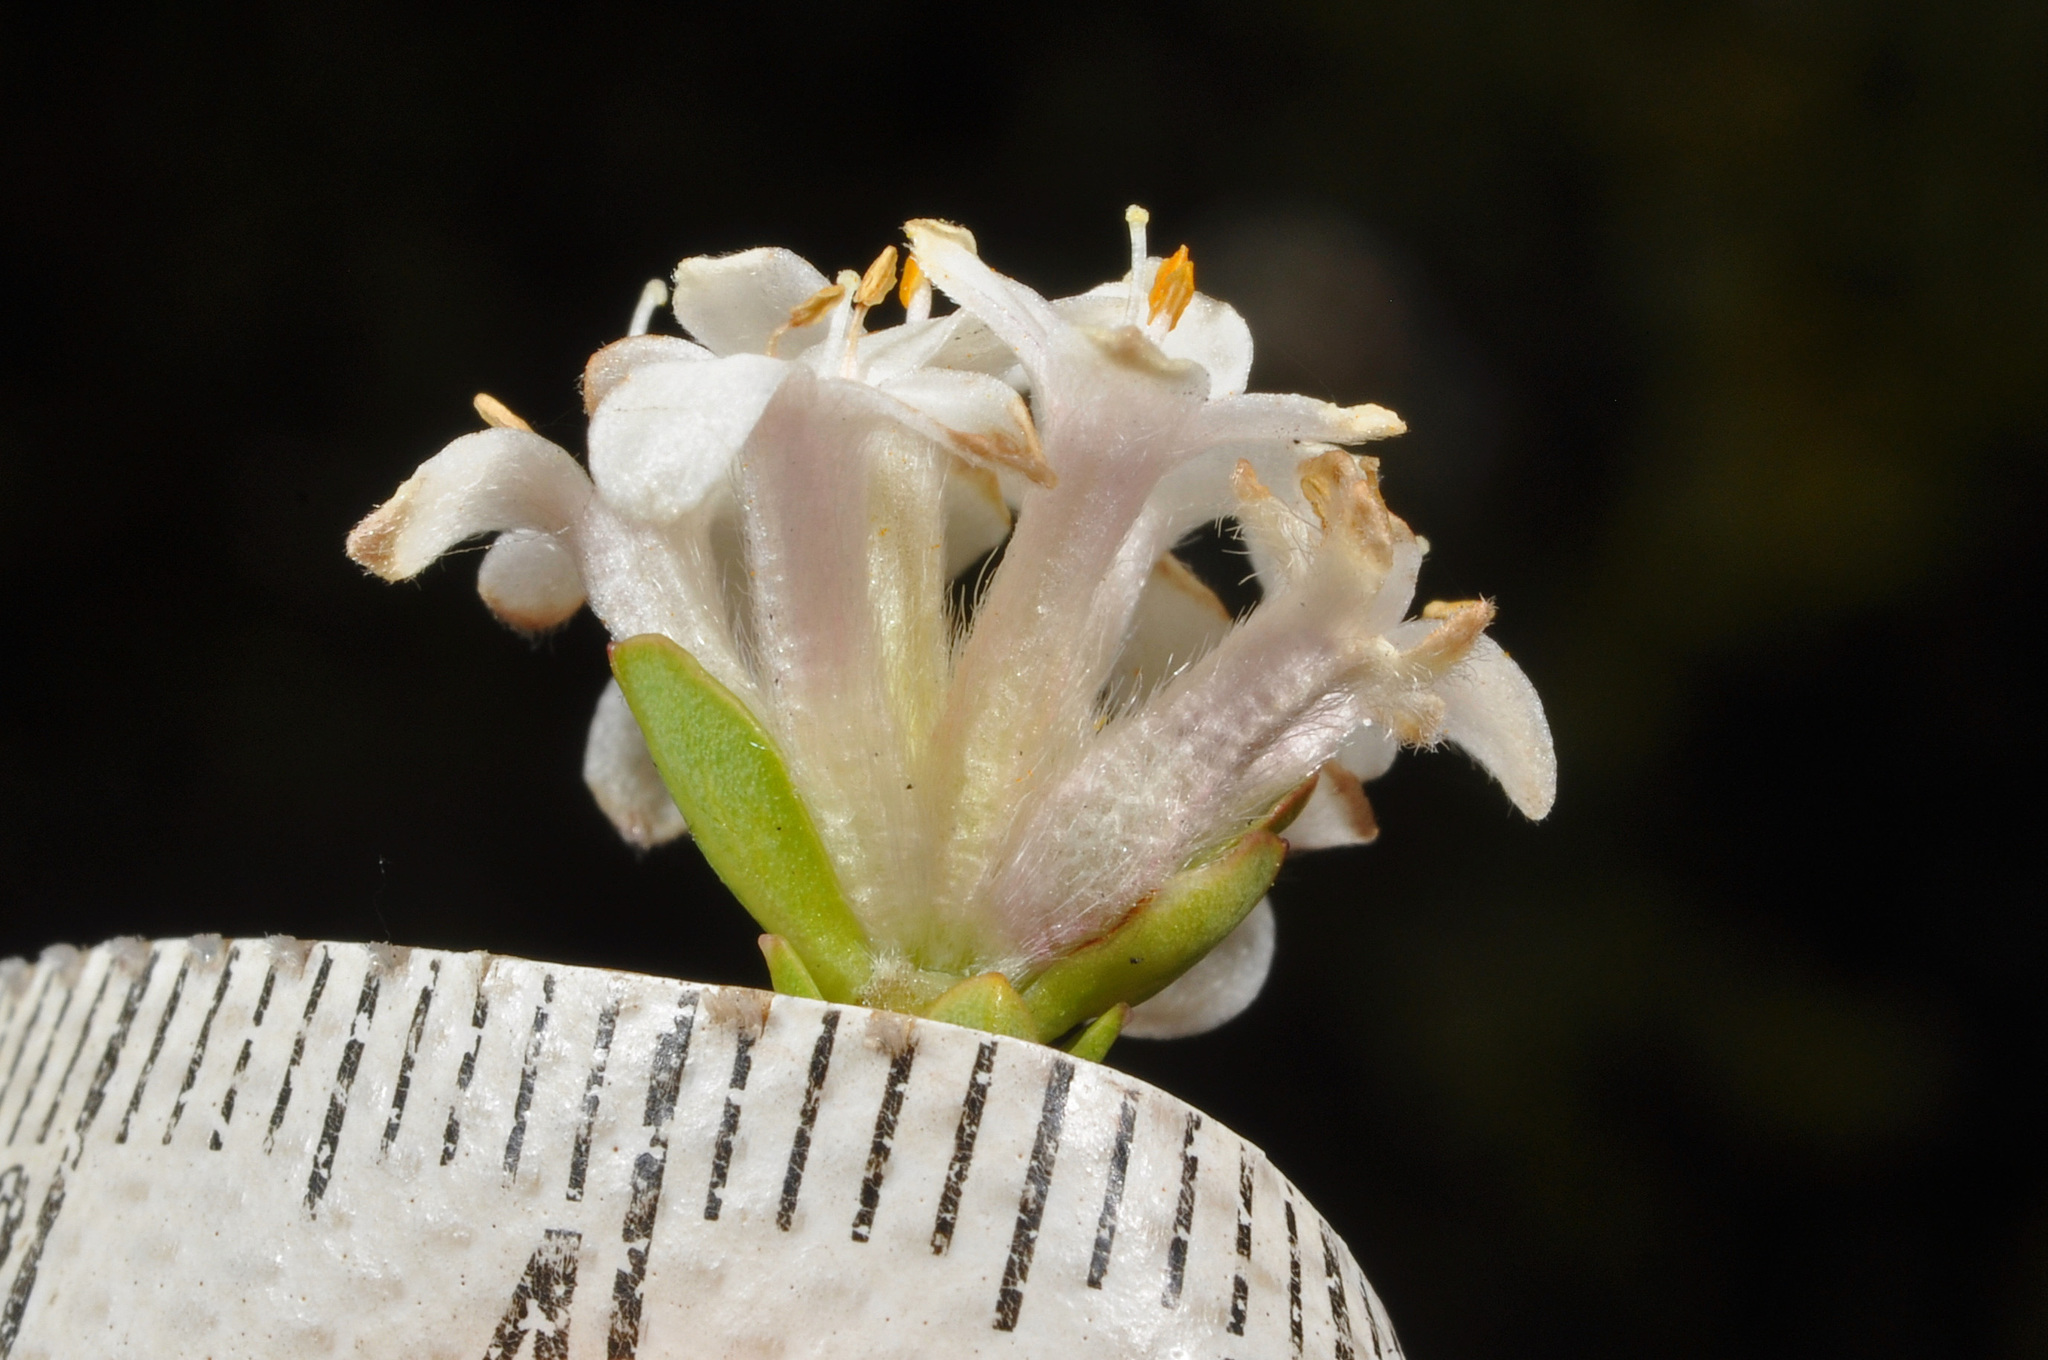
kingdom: Plantae
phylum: Tracheophyta
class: Magnoliopsida
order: Malvales
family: Thymelaeaceae
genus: Pimelea
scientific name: Pimelea traversii
